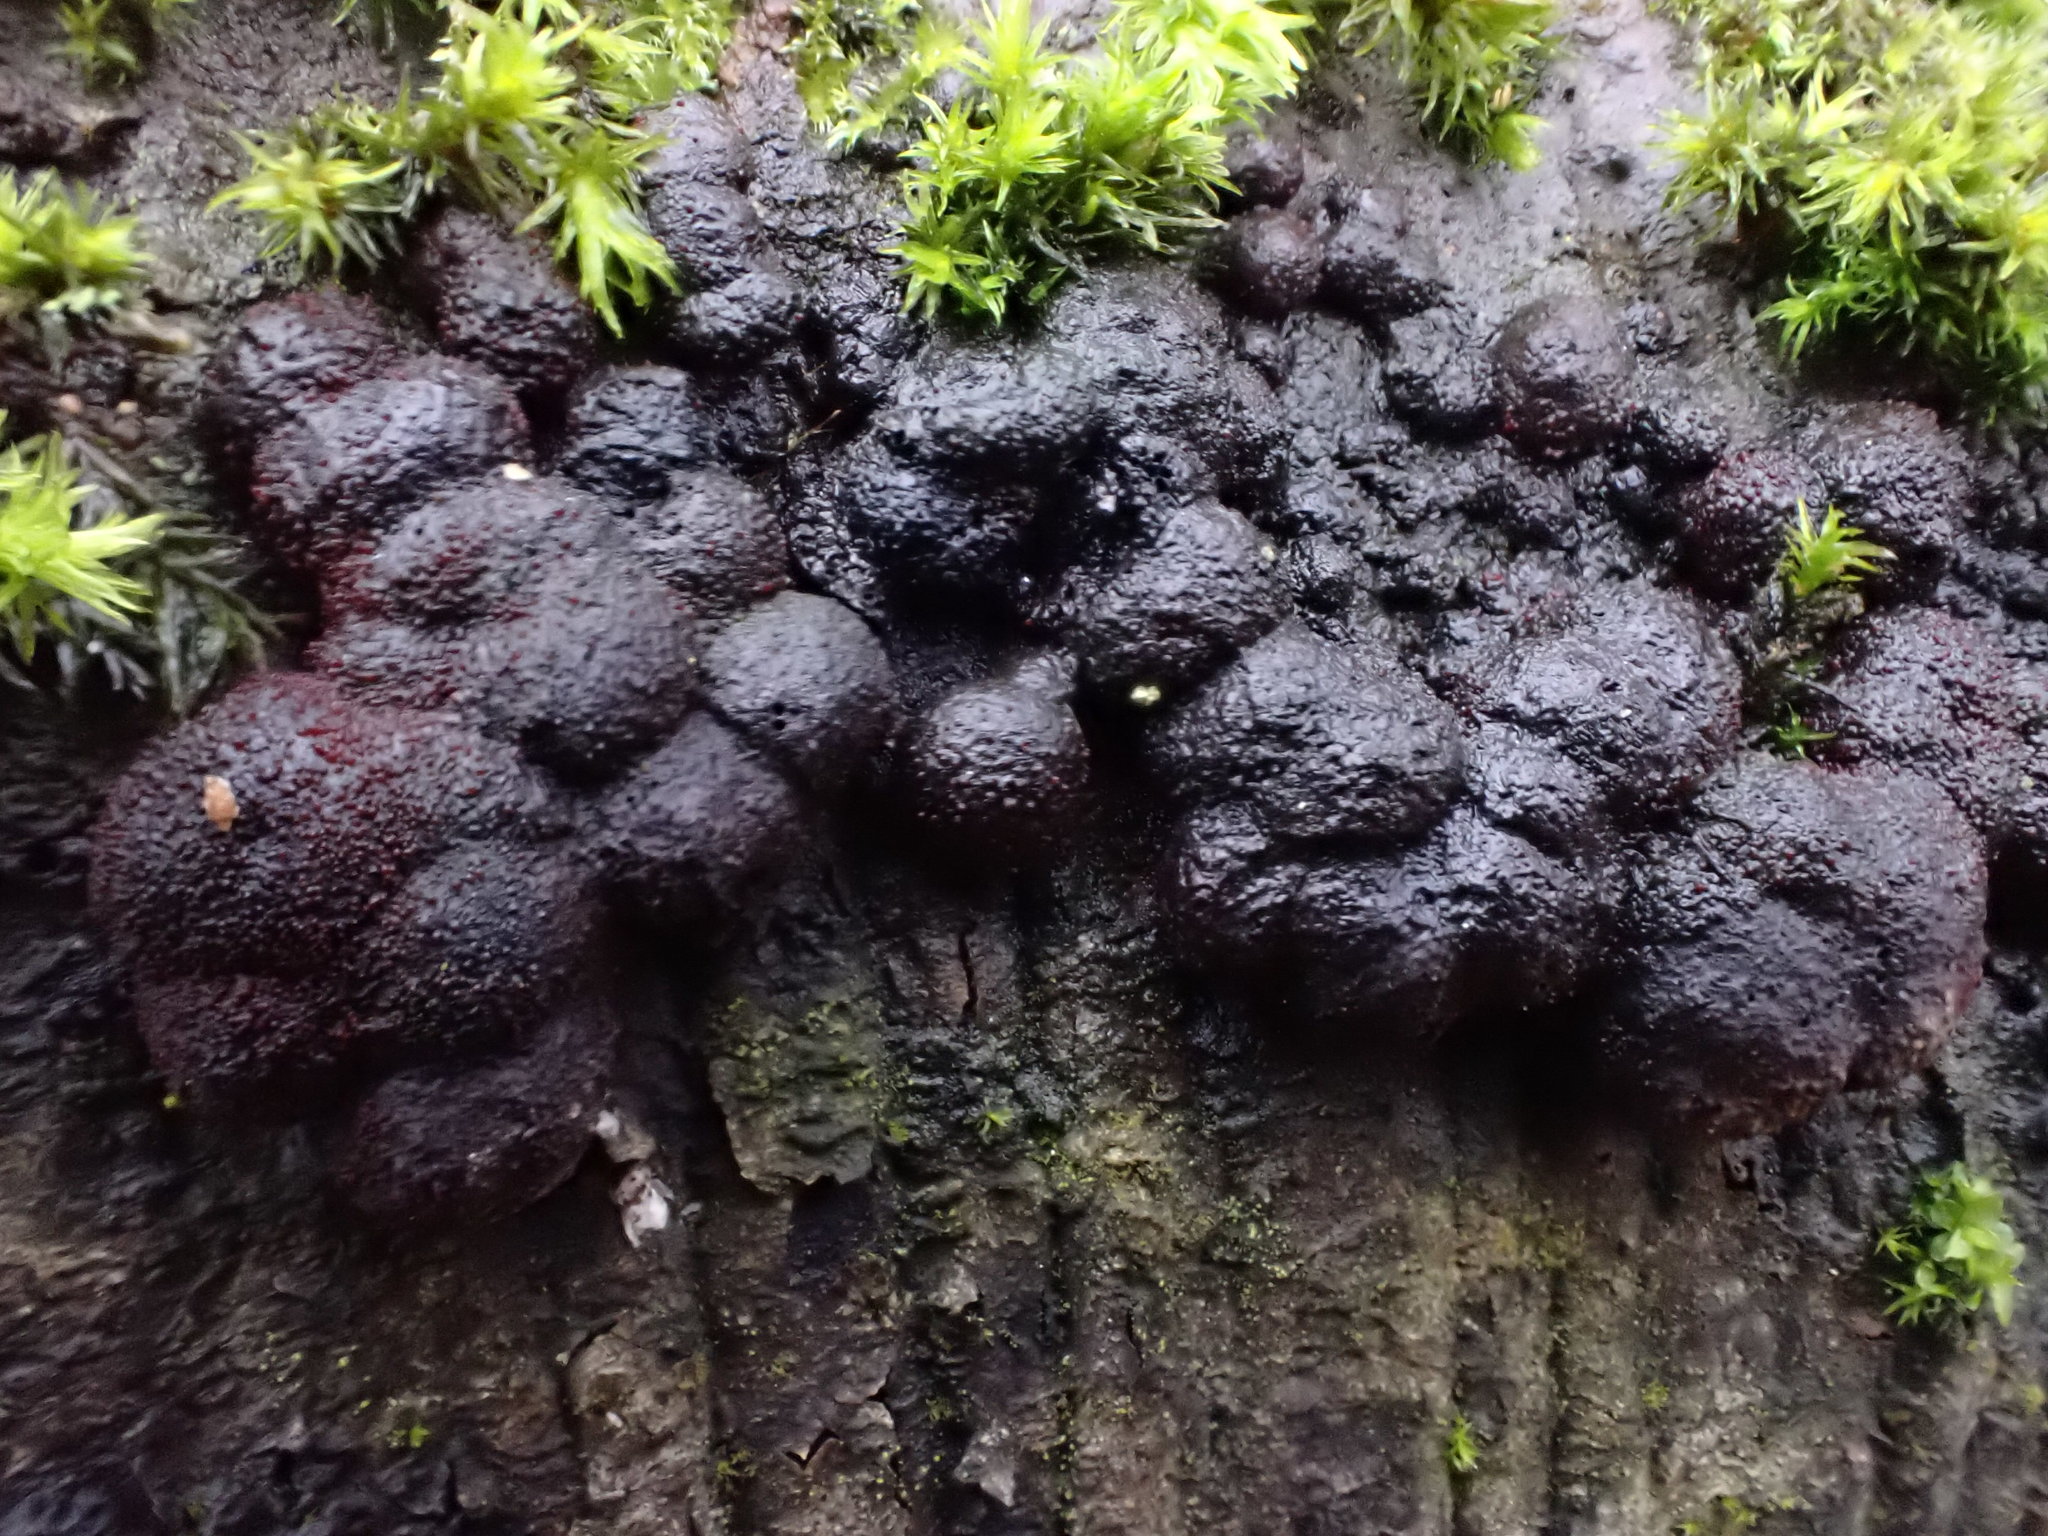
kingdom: Fungi
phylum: Ascomycota
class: Sordariomycetes
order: Xylariales
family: Hypoxylaceae
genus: Jackrogersella
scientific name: Jackrogersella multiformis
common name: Birch woodwart
